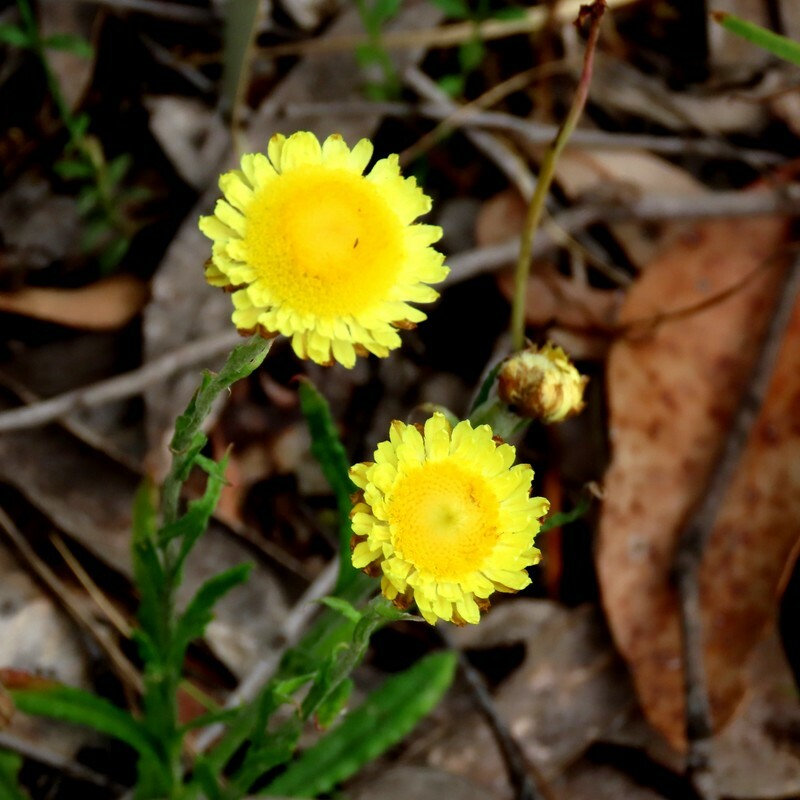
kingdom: Plantae
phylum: Tracheophyta
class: Magnoliopsida
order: Asterales
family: Asteraceae
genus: Coronidium
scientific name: Coronidium scorpioides
